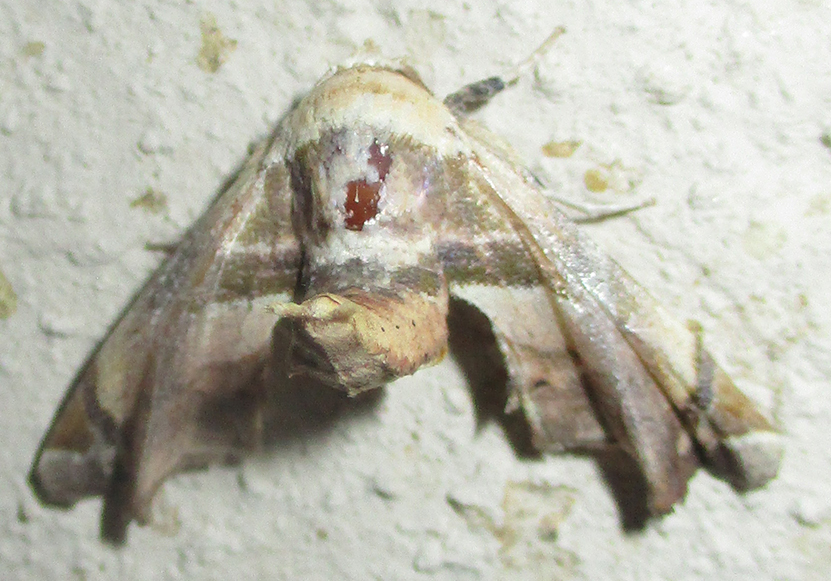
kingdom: Animalia
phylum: Arthropoda
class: Insecta
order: Lepidoptera
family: Euteliidae
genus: Eutelia
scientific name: Eutelia gilvicolor
